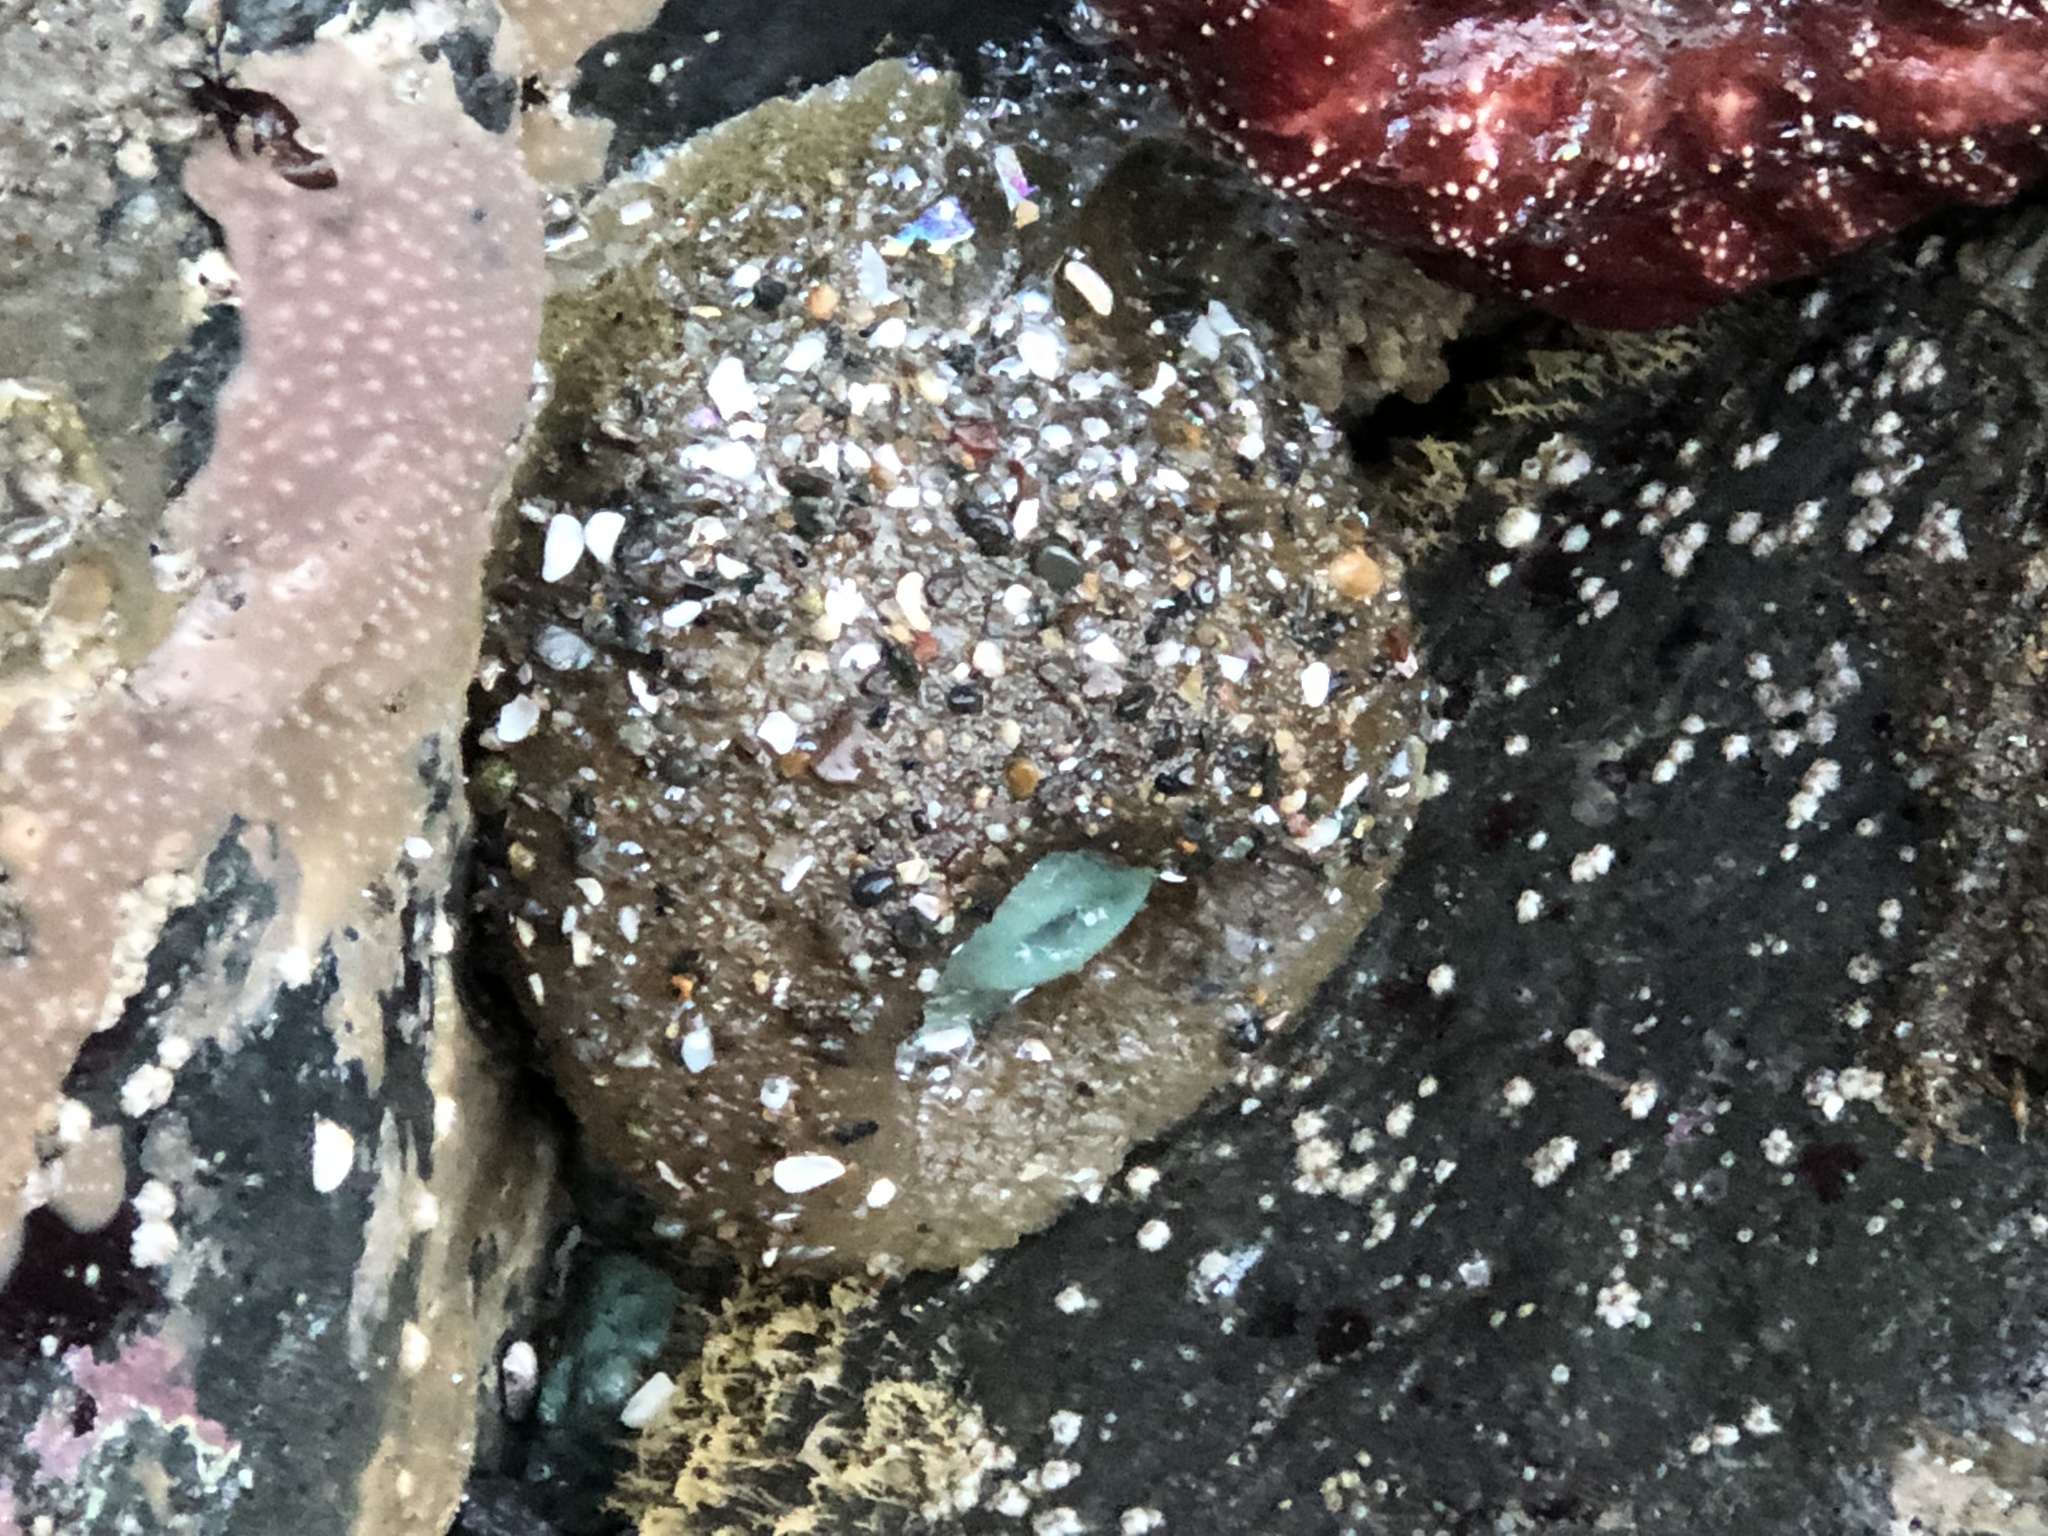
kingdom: Animalia
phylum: Cnidaria
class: Anthozoa
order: Actiniaria
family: Actiniidae
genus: Anthopleura
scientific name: Anthopleura xanthogrammica
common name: Giant green anemone
